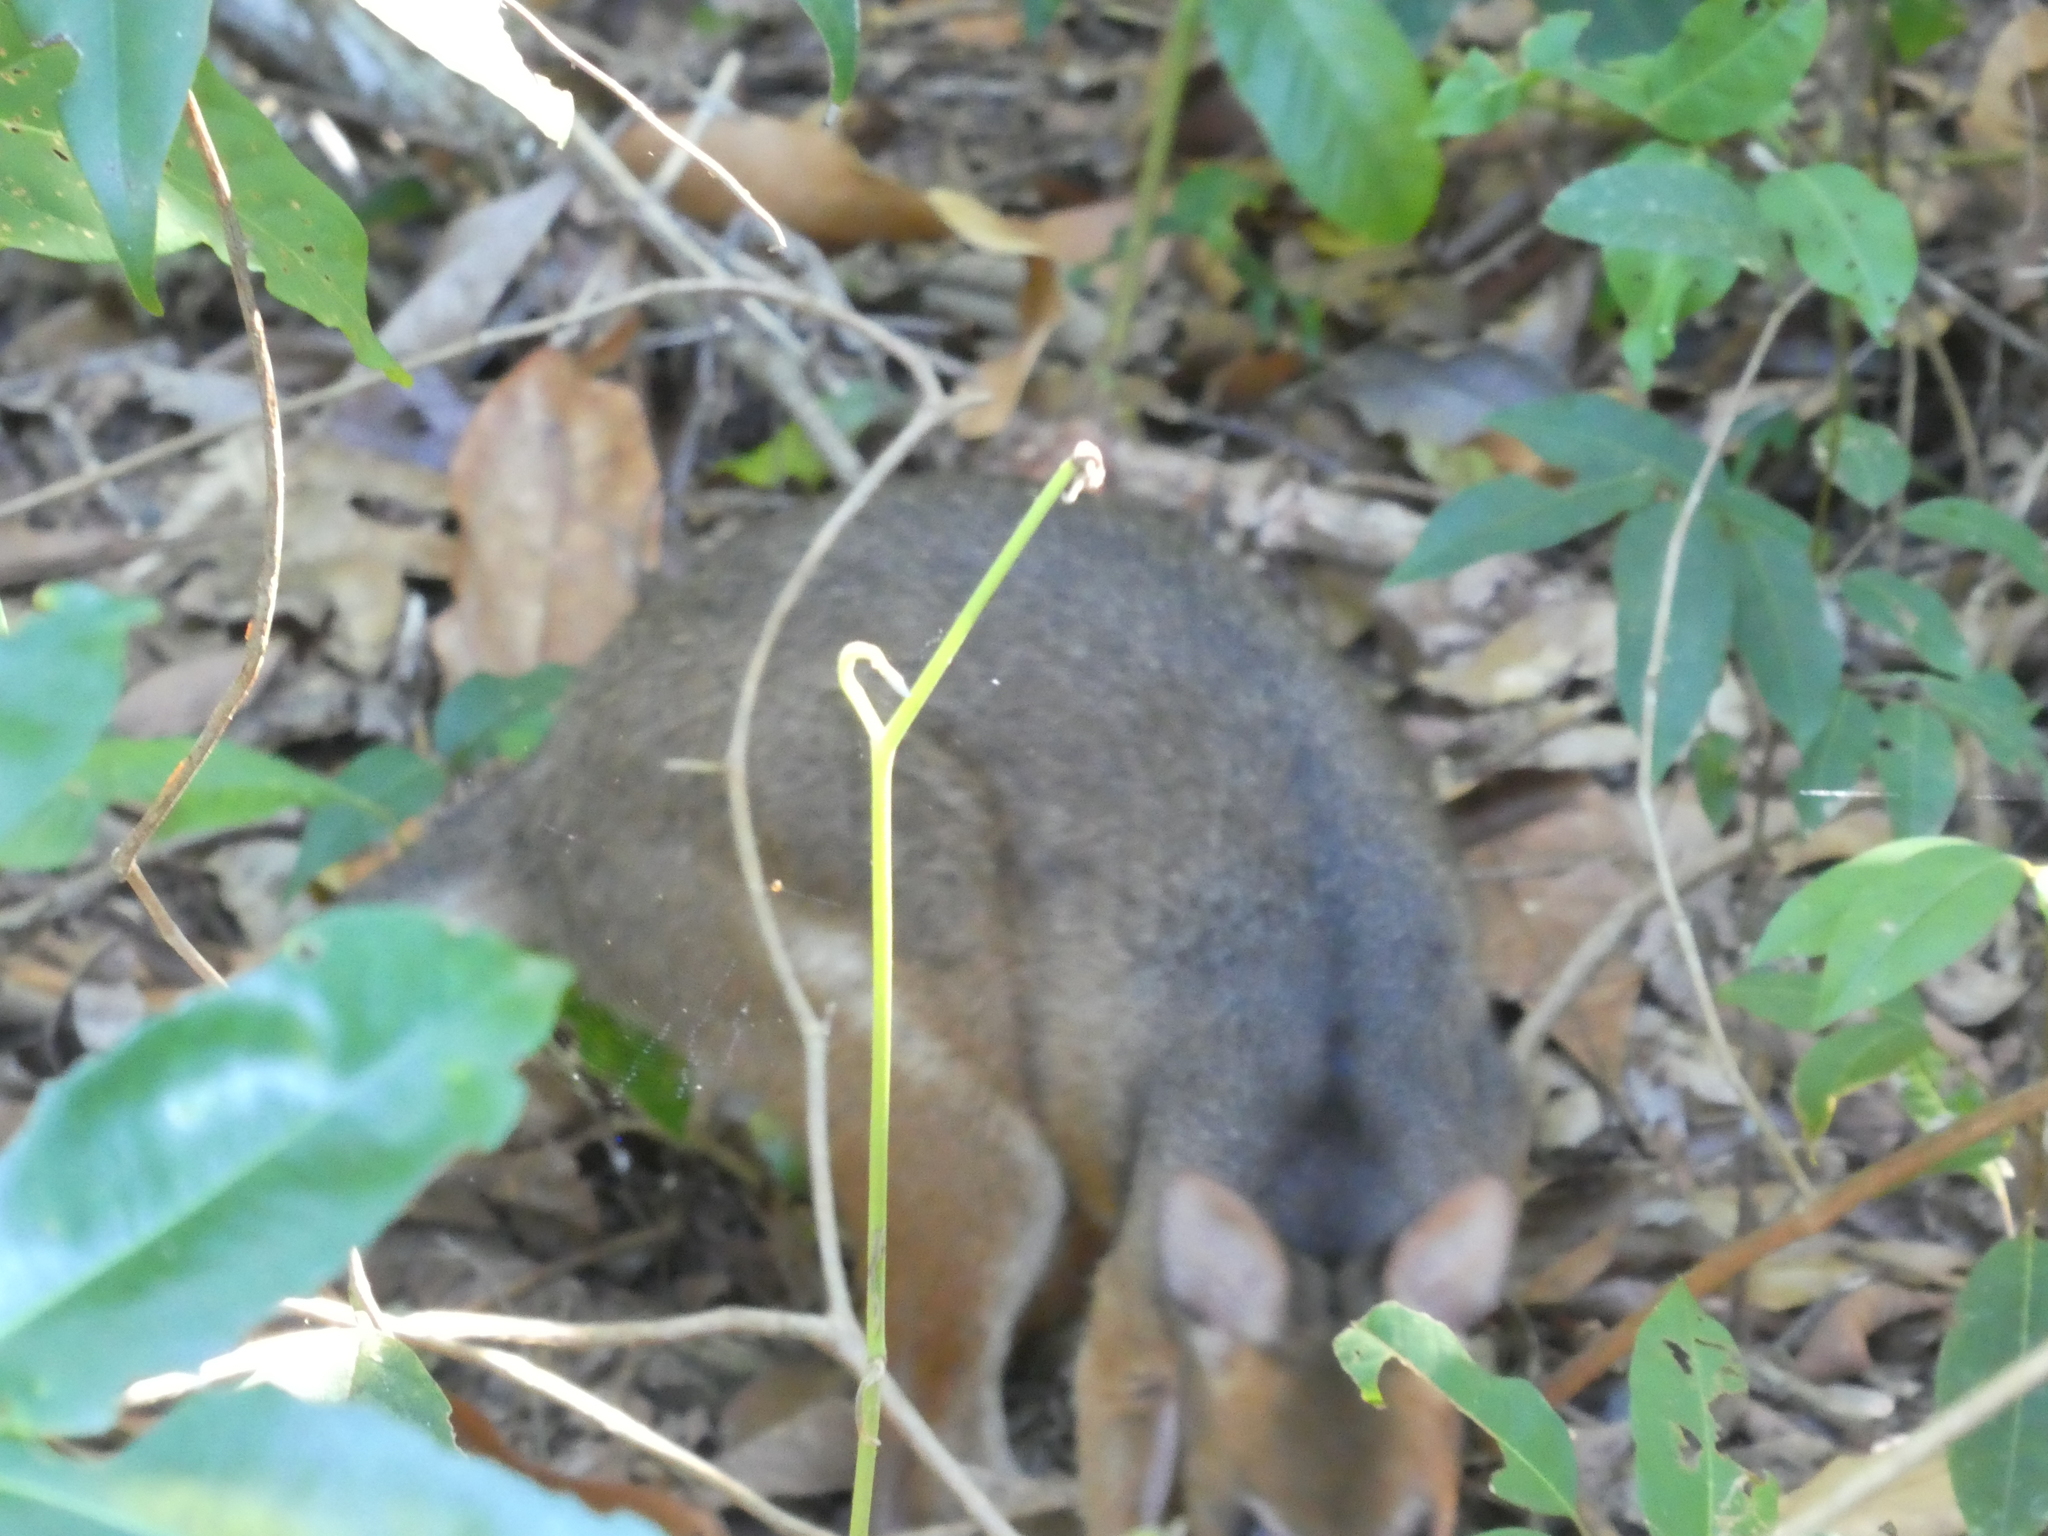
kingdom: Animalia
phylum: Chordata
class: Mammalia
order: Diprotodontia
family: Macropodidae
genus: Thylogale
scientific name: Thylogale stigmatica
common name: Red-legged pademelon
